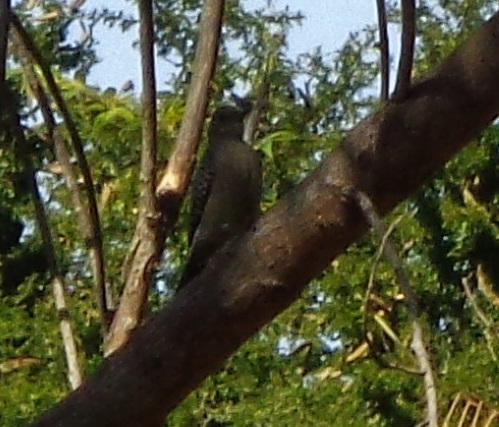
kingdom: Animalia
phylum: Chordata
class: Aves
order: Piciformes
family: Picidae
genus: Melanerpes
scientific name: Melanerpes aurifrons
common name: Golden-fronted woodpecker
